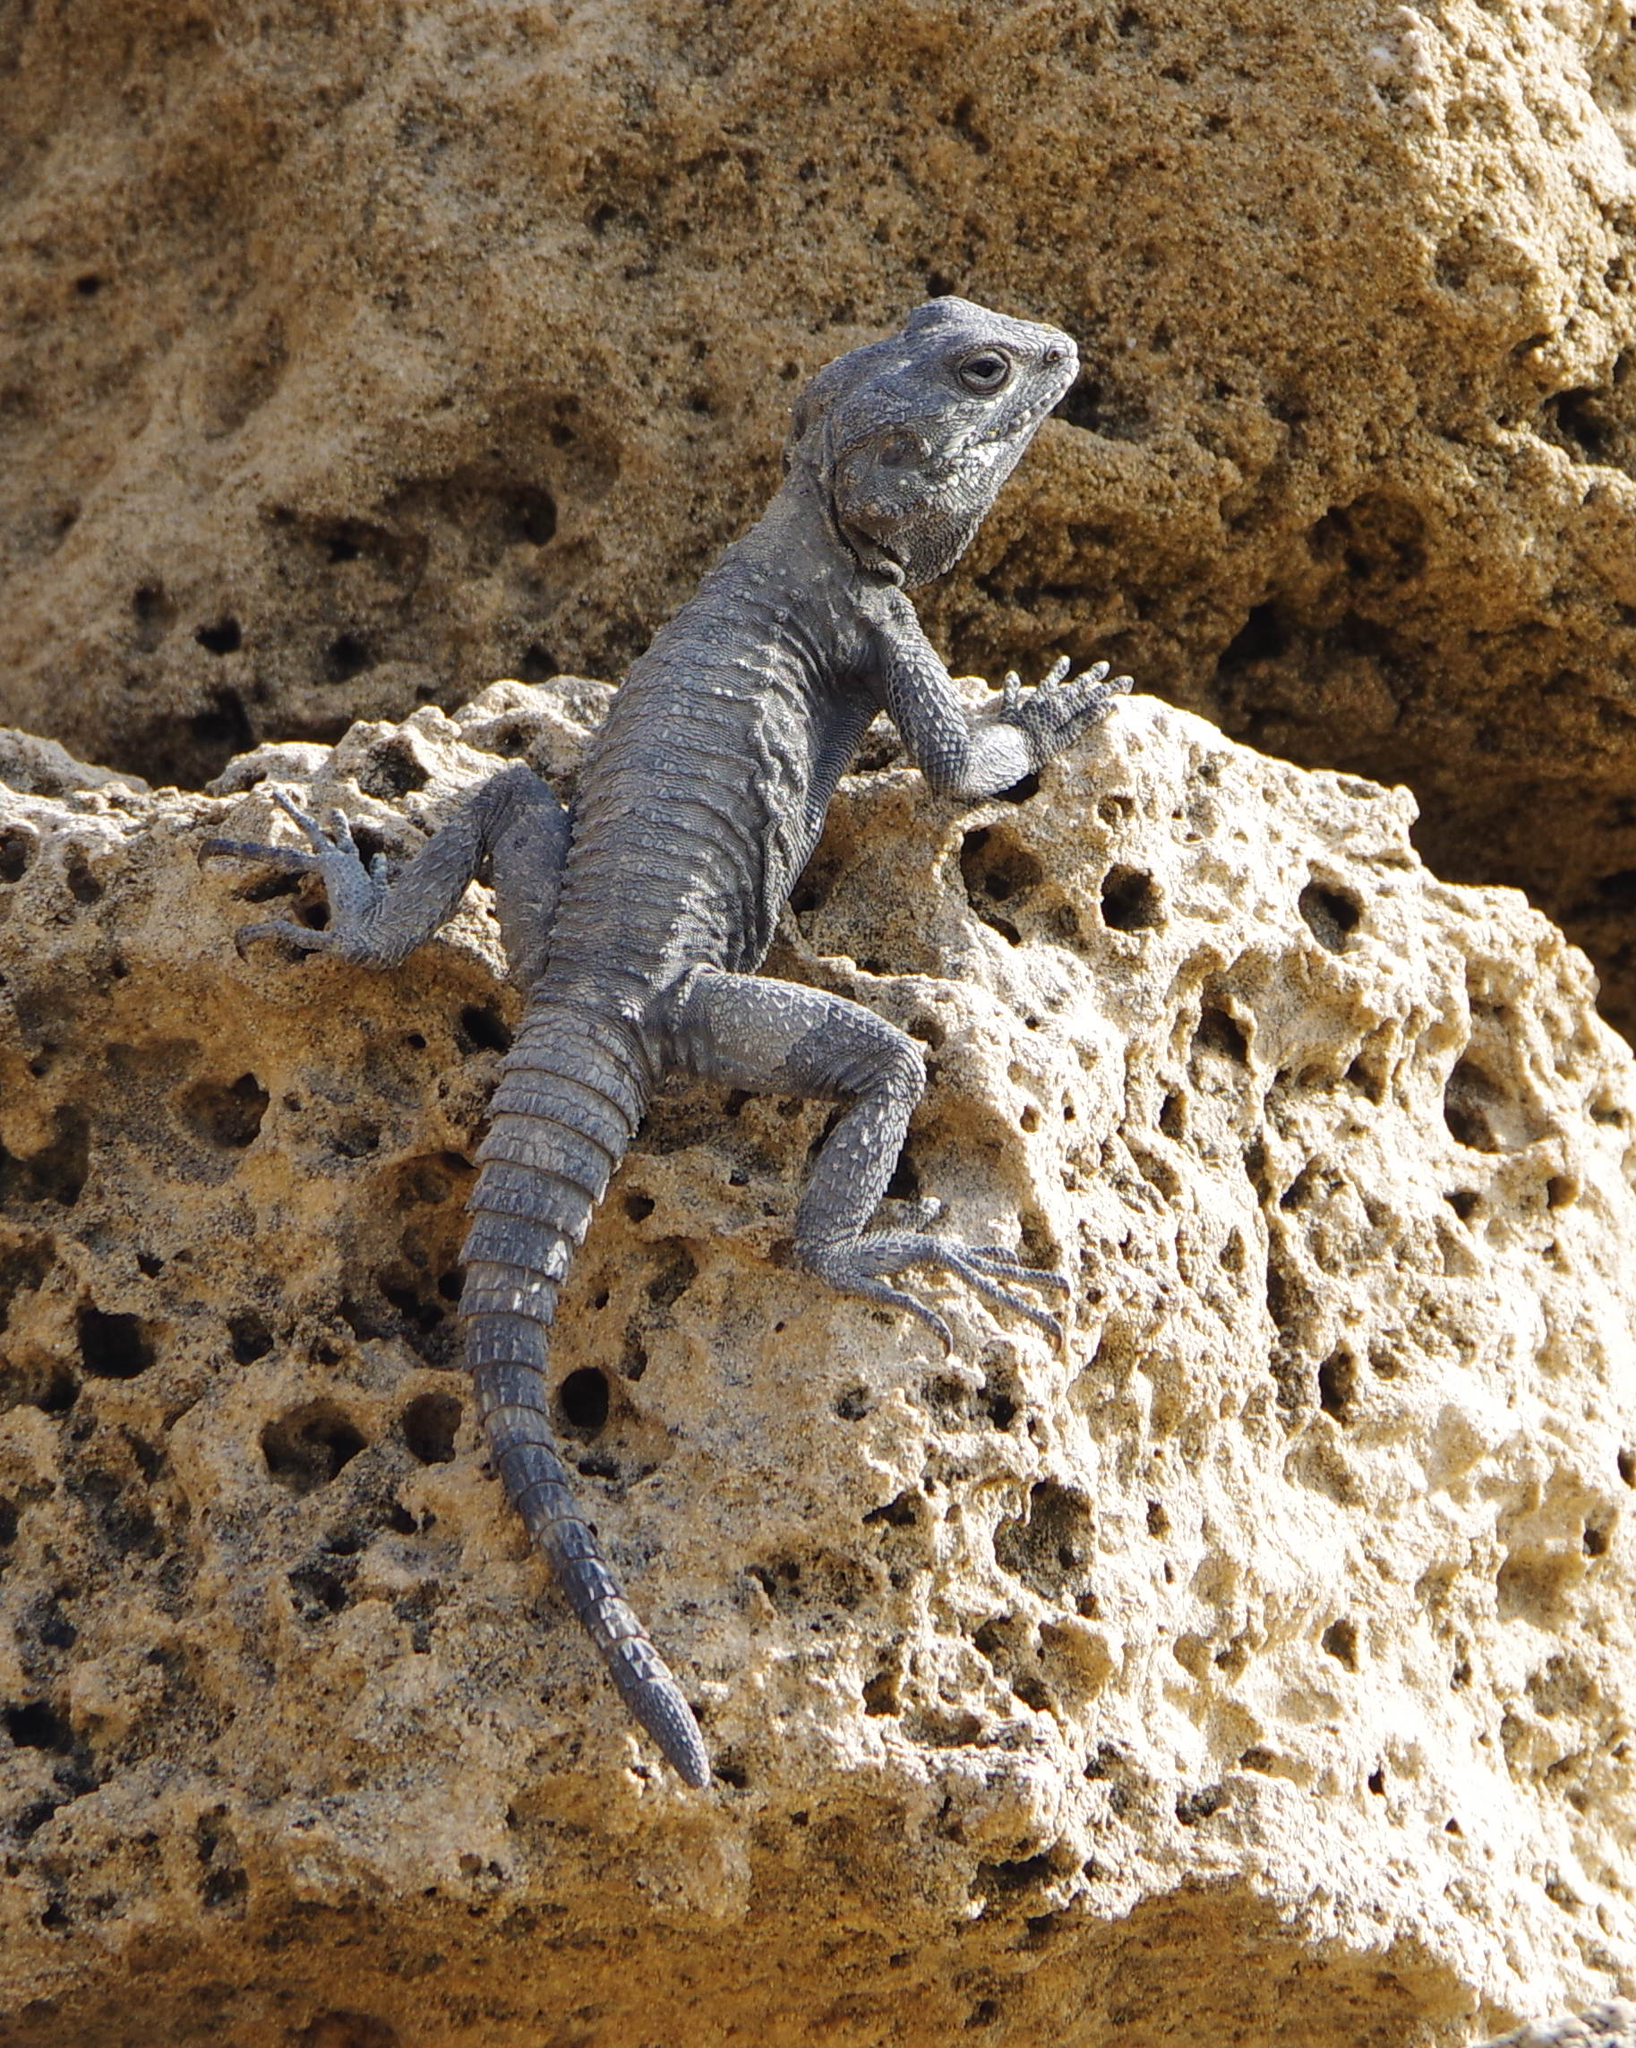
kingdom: Animalia
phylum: Chordata
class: Squamata
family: Agamidae
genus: Laudakia
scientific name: Laudakia vulgaris
